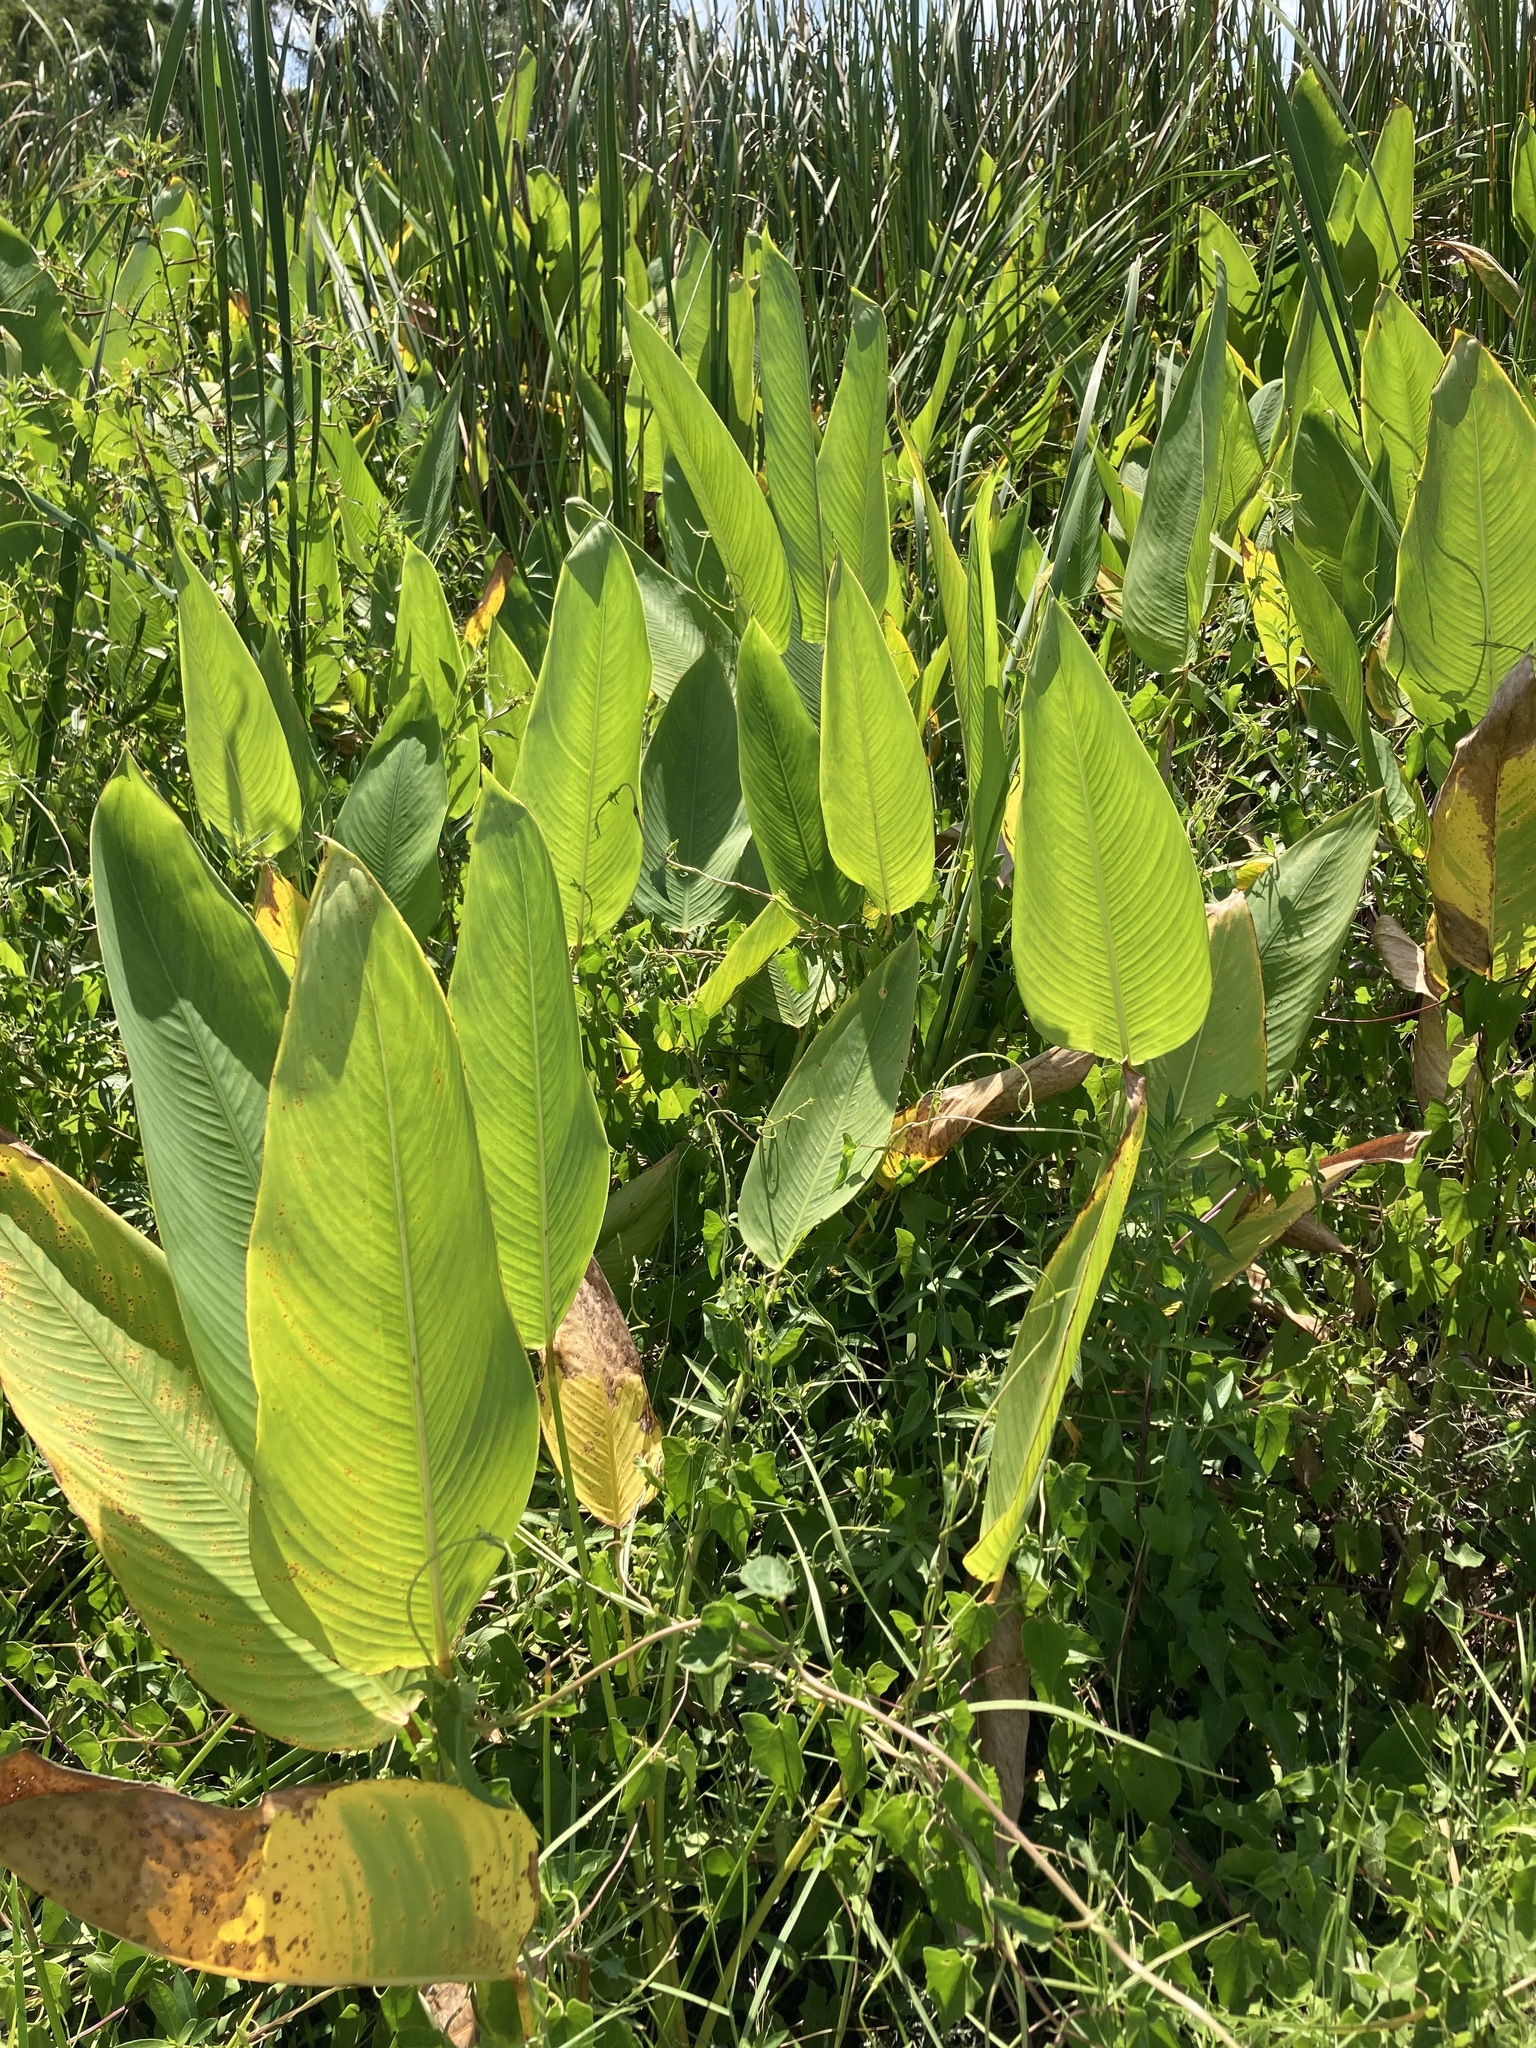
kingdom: Plantae
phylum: Tracheophyta
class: Liliopsida
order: Zingiberales
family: Marantaceae
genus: Thalia
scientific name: Thalia geniculata
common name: Arrowroot
